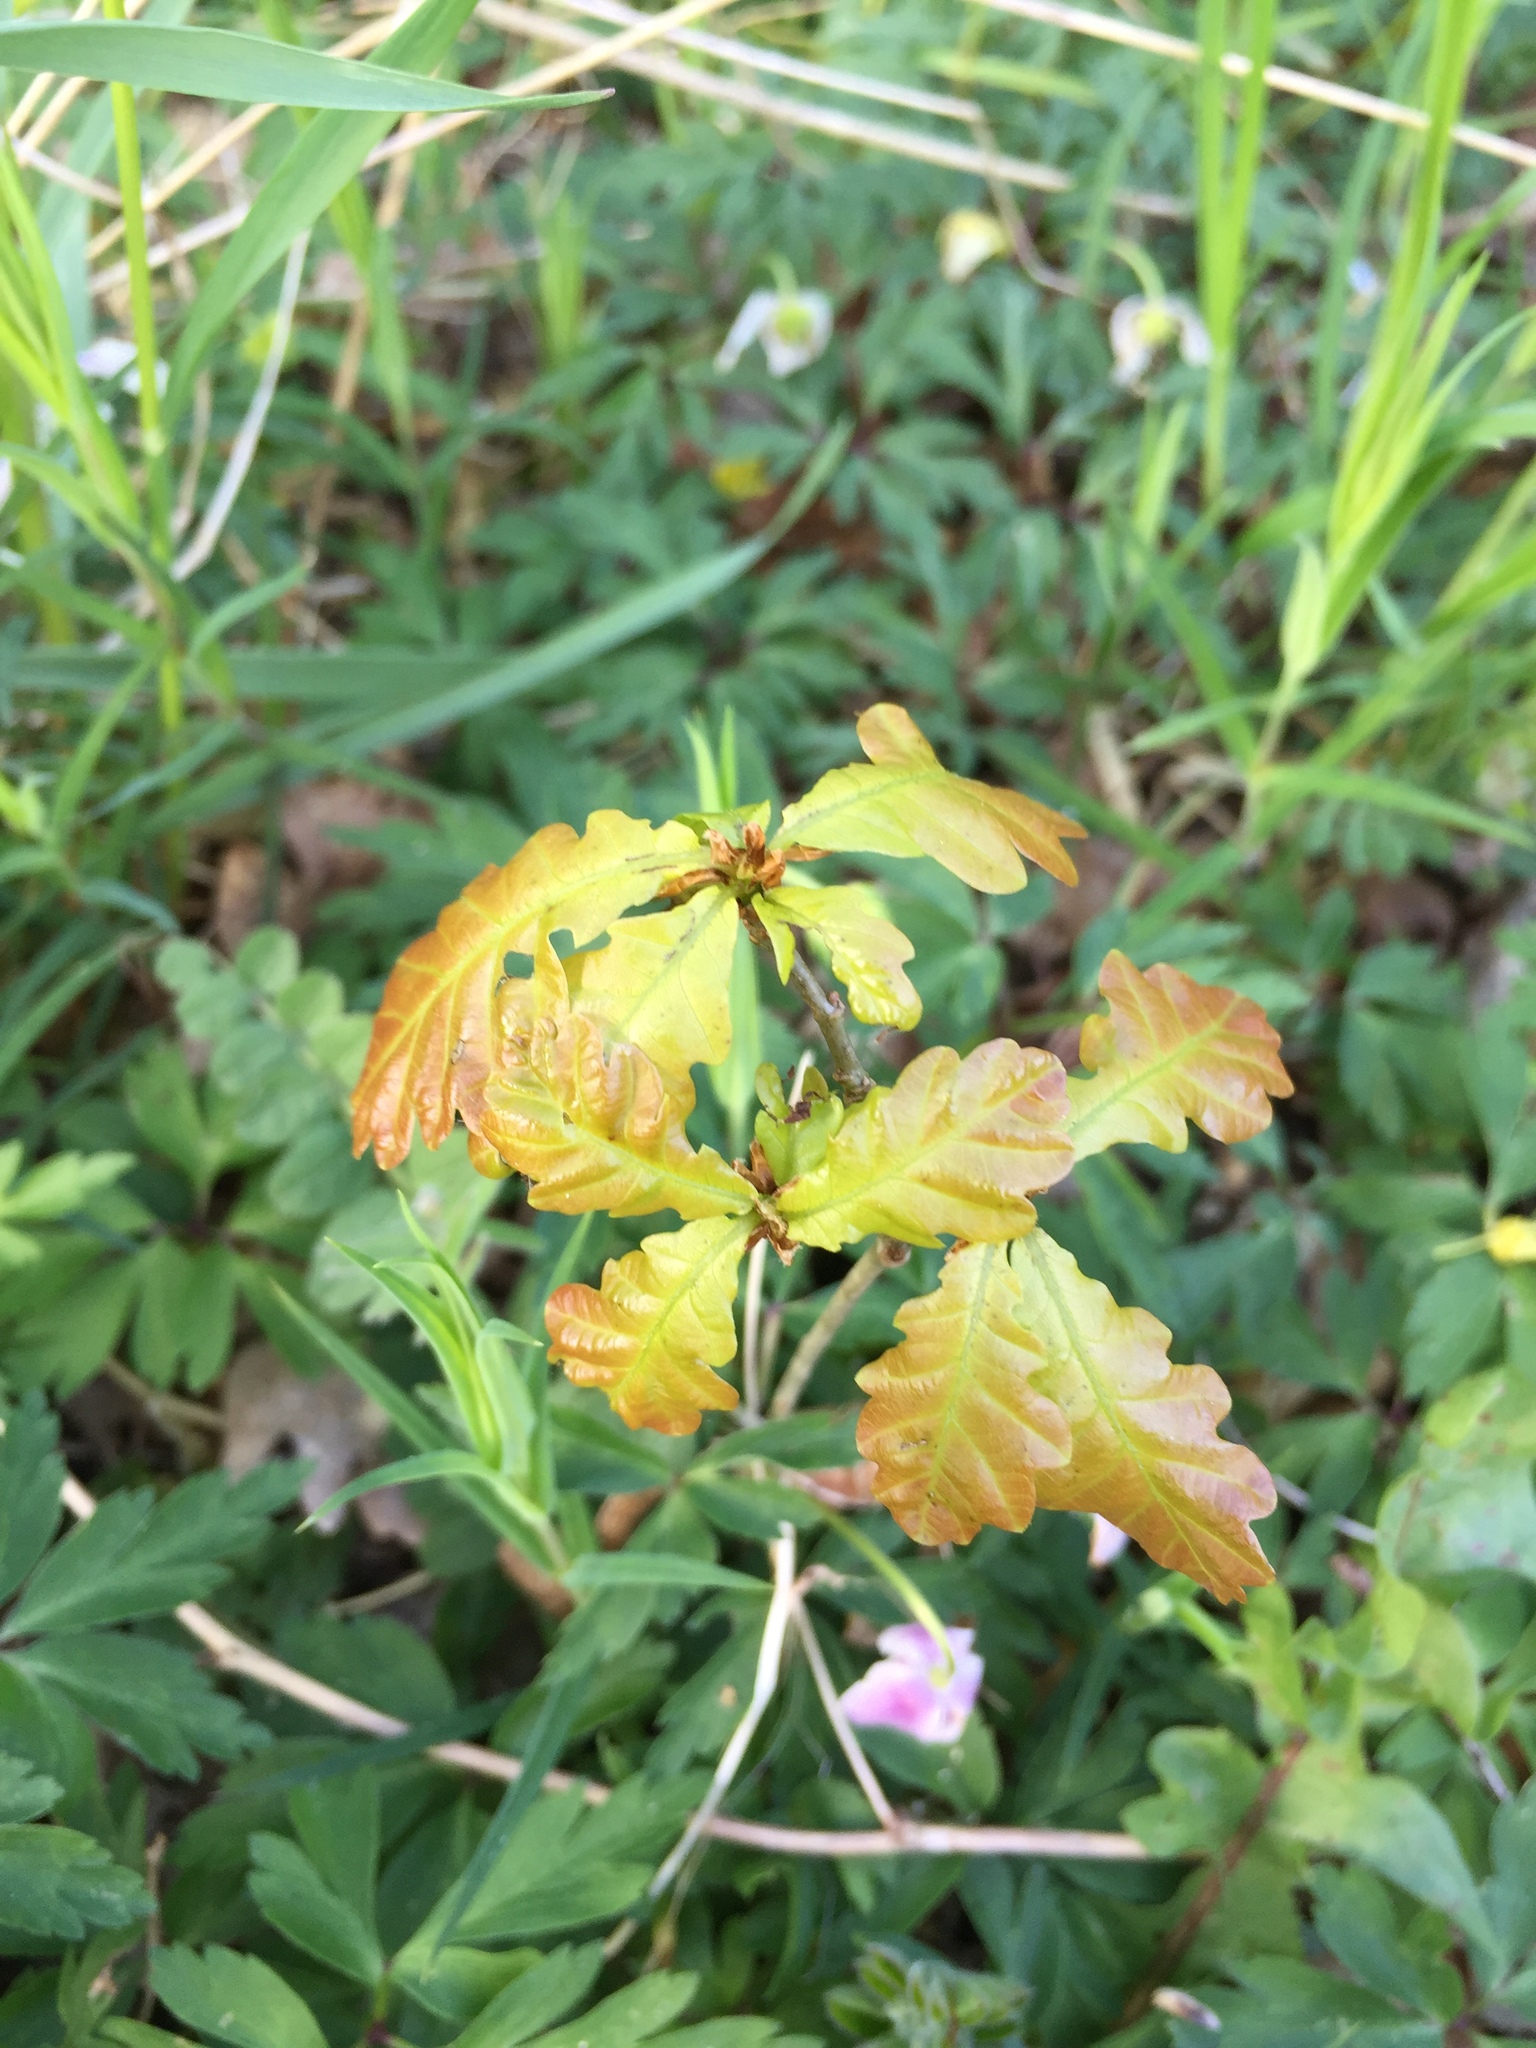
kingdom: Plantae
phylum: Tracheophyta
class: Magnoliopsida
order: Fagales
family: Fagaceae
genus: Quercus
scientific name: Quercus robur
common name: Pedunculate oak
